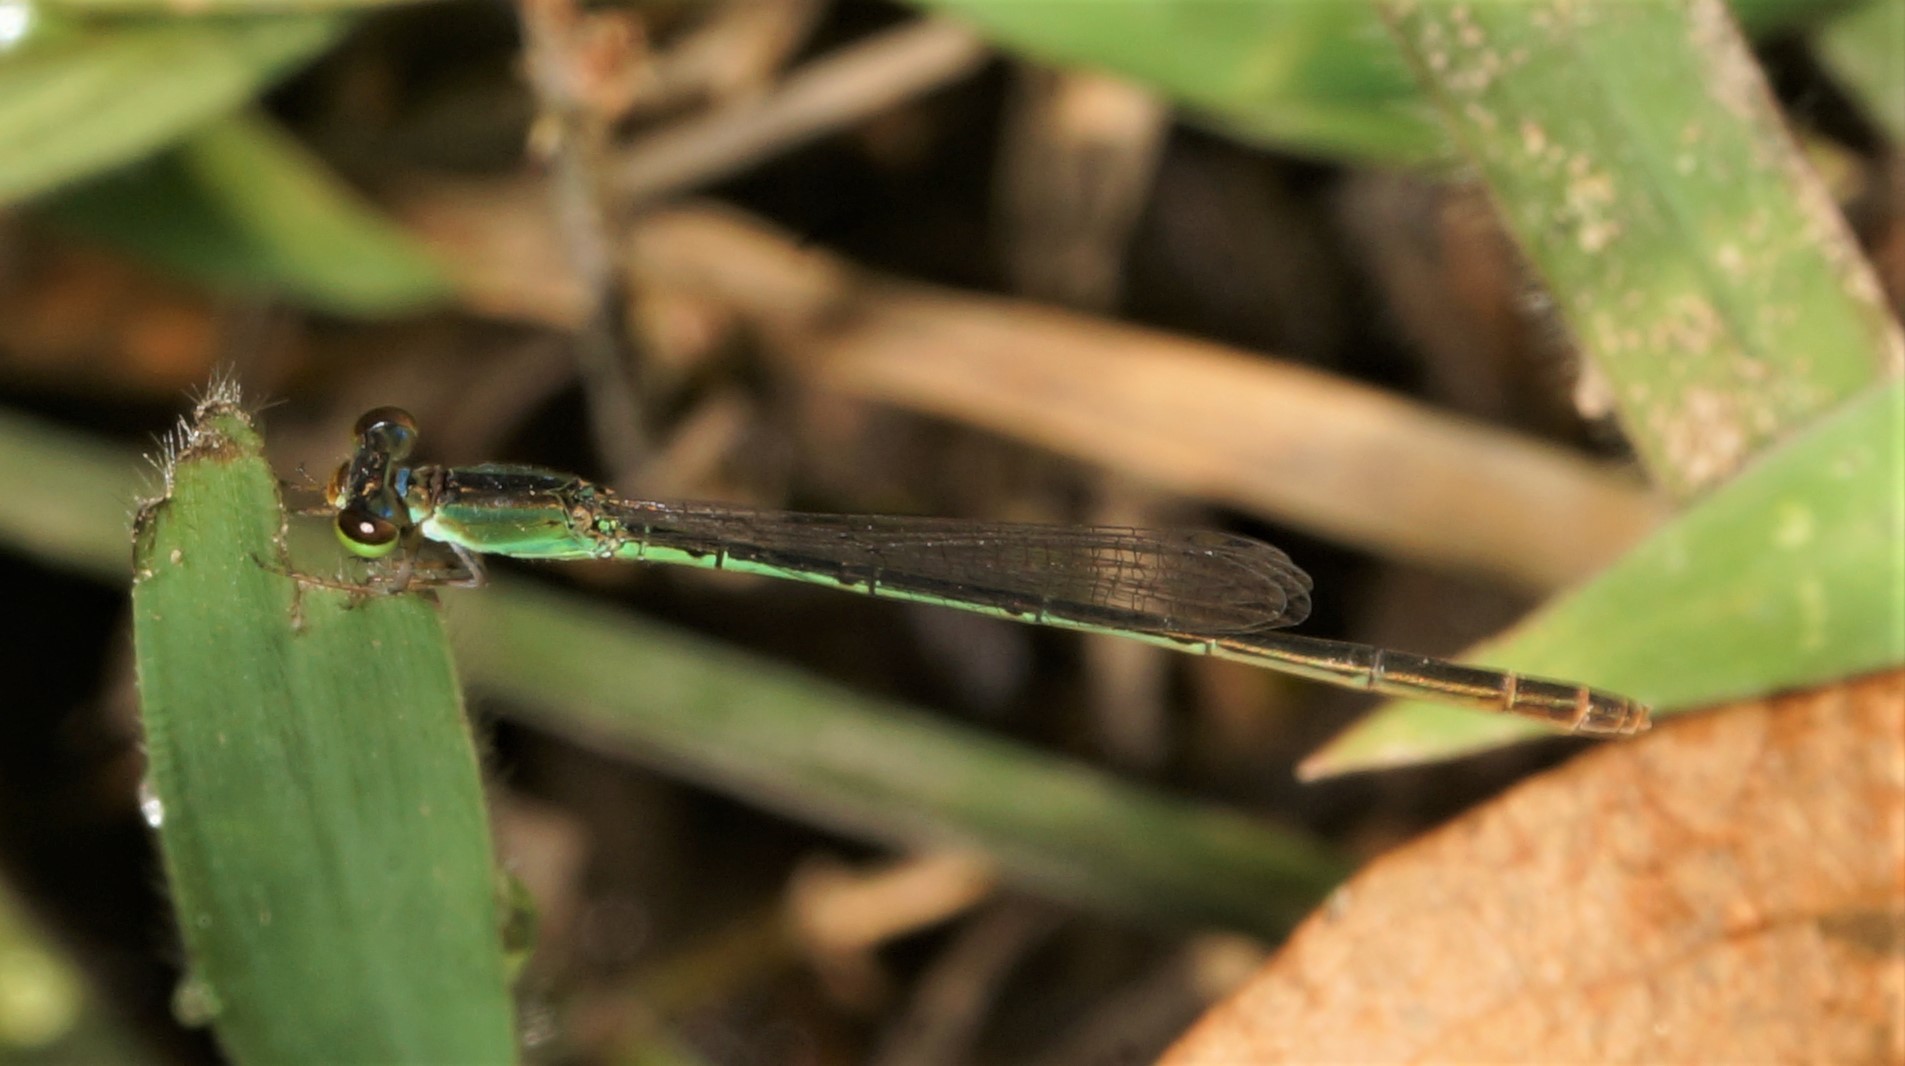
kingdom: Animalia
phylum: Arthropoda
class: Insecta
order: Odonata
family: Coenagrionidae
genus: Agriocnemis
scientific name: Agriocnemis minima
